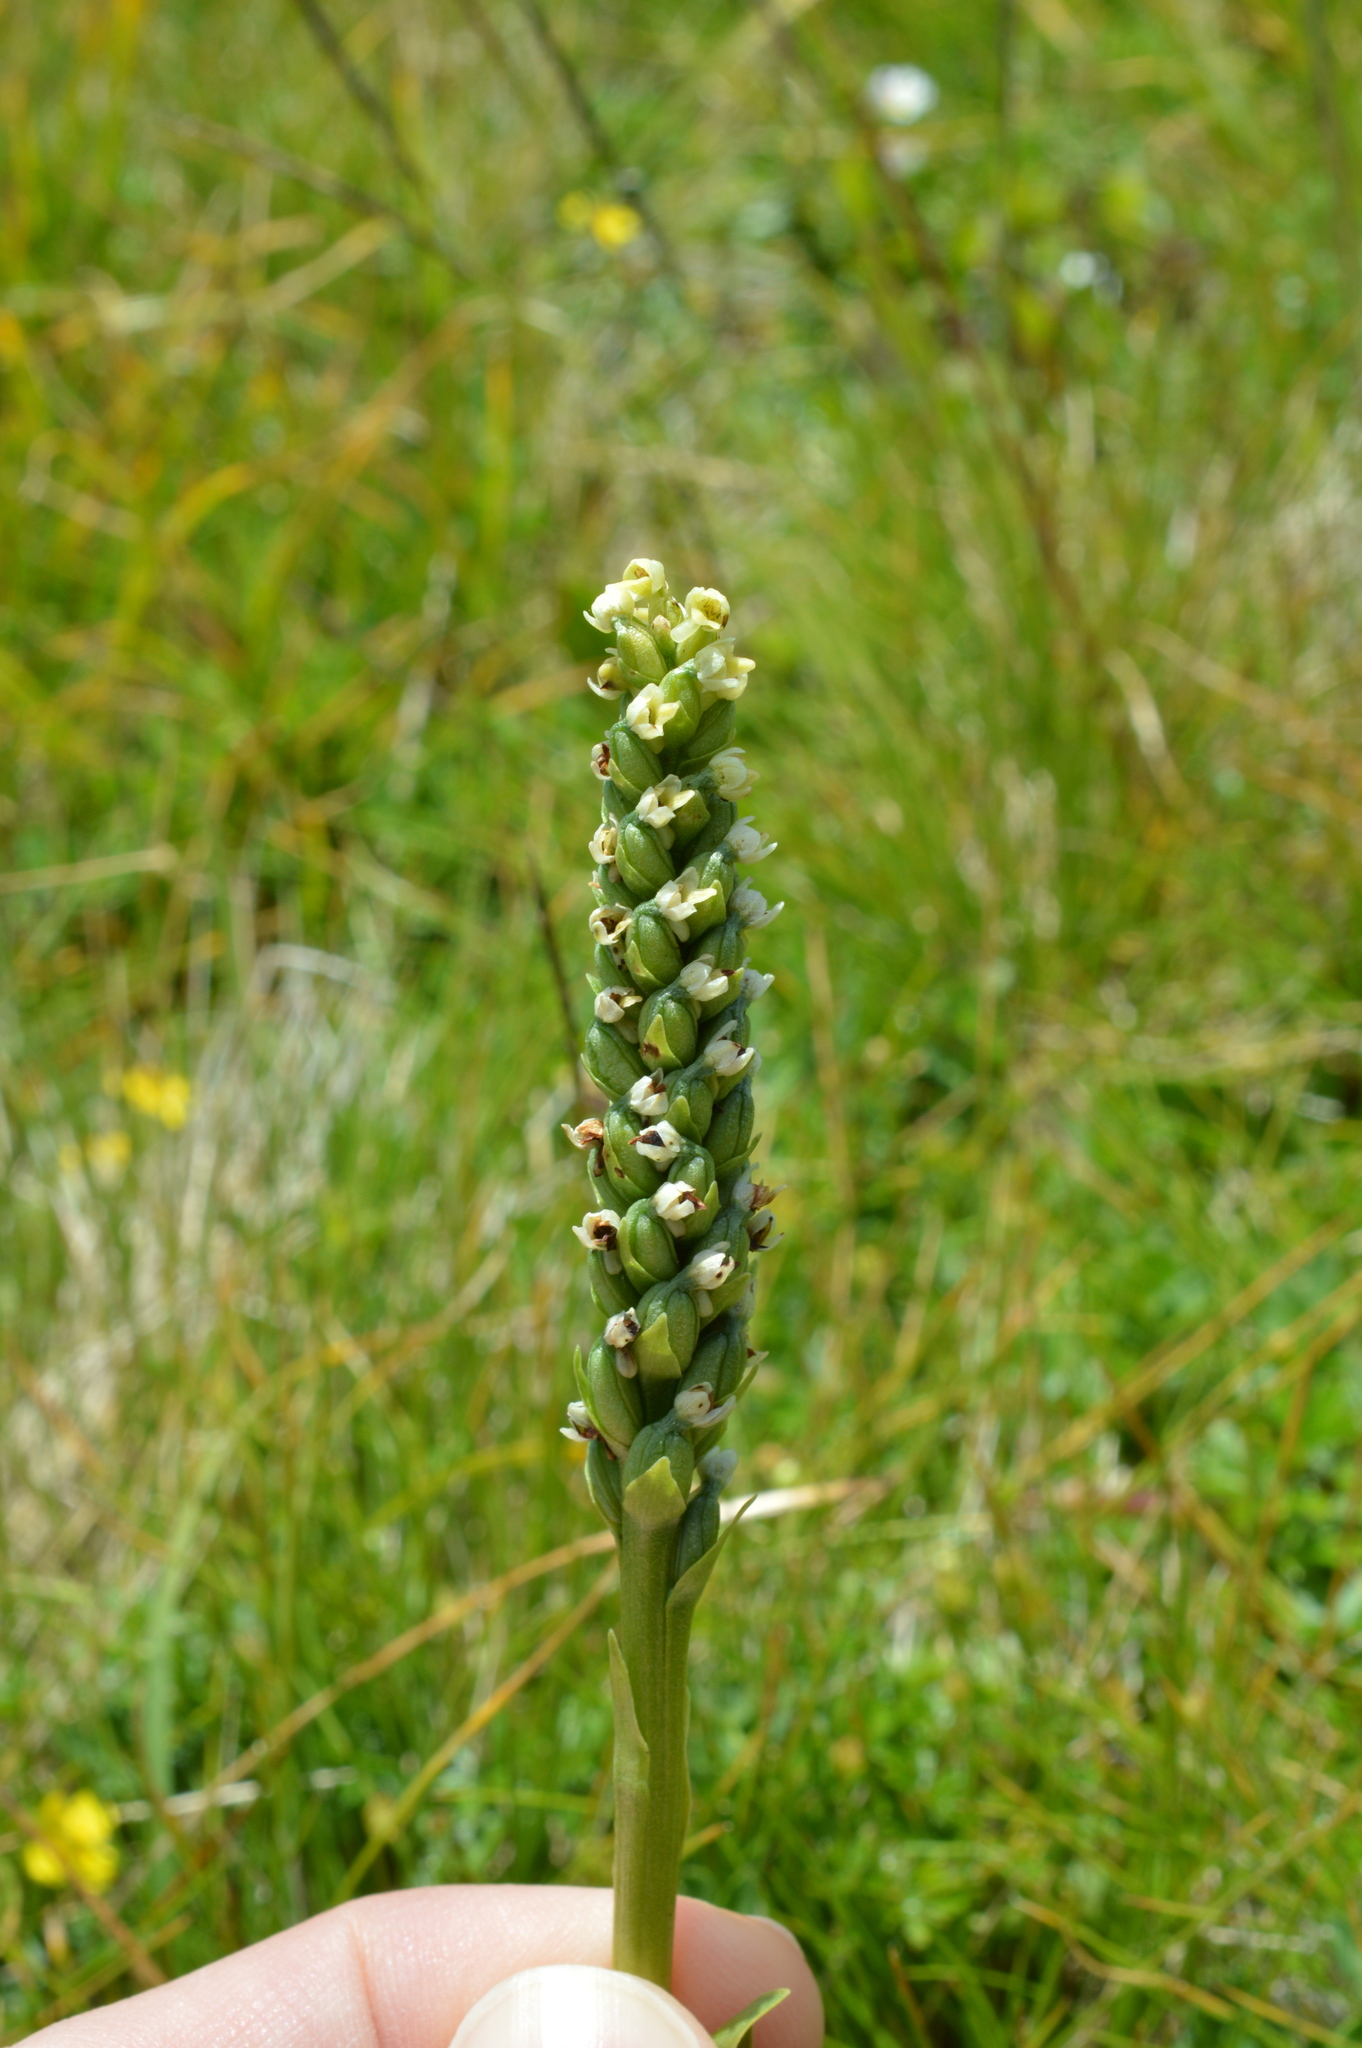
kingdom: Plantae
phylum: Tracheophyta
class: Liliopsida
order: Asparagales
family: Orchidaceae
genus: Pseudorchis
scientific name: Pseudorchis albida
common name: Small-white orchid
